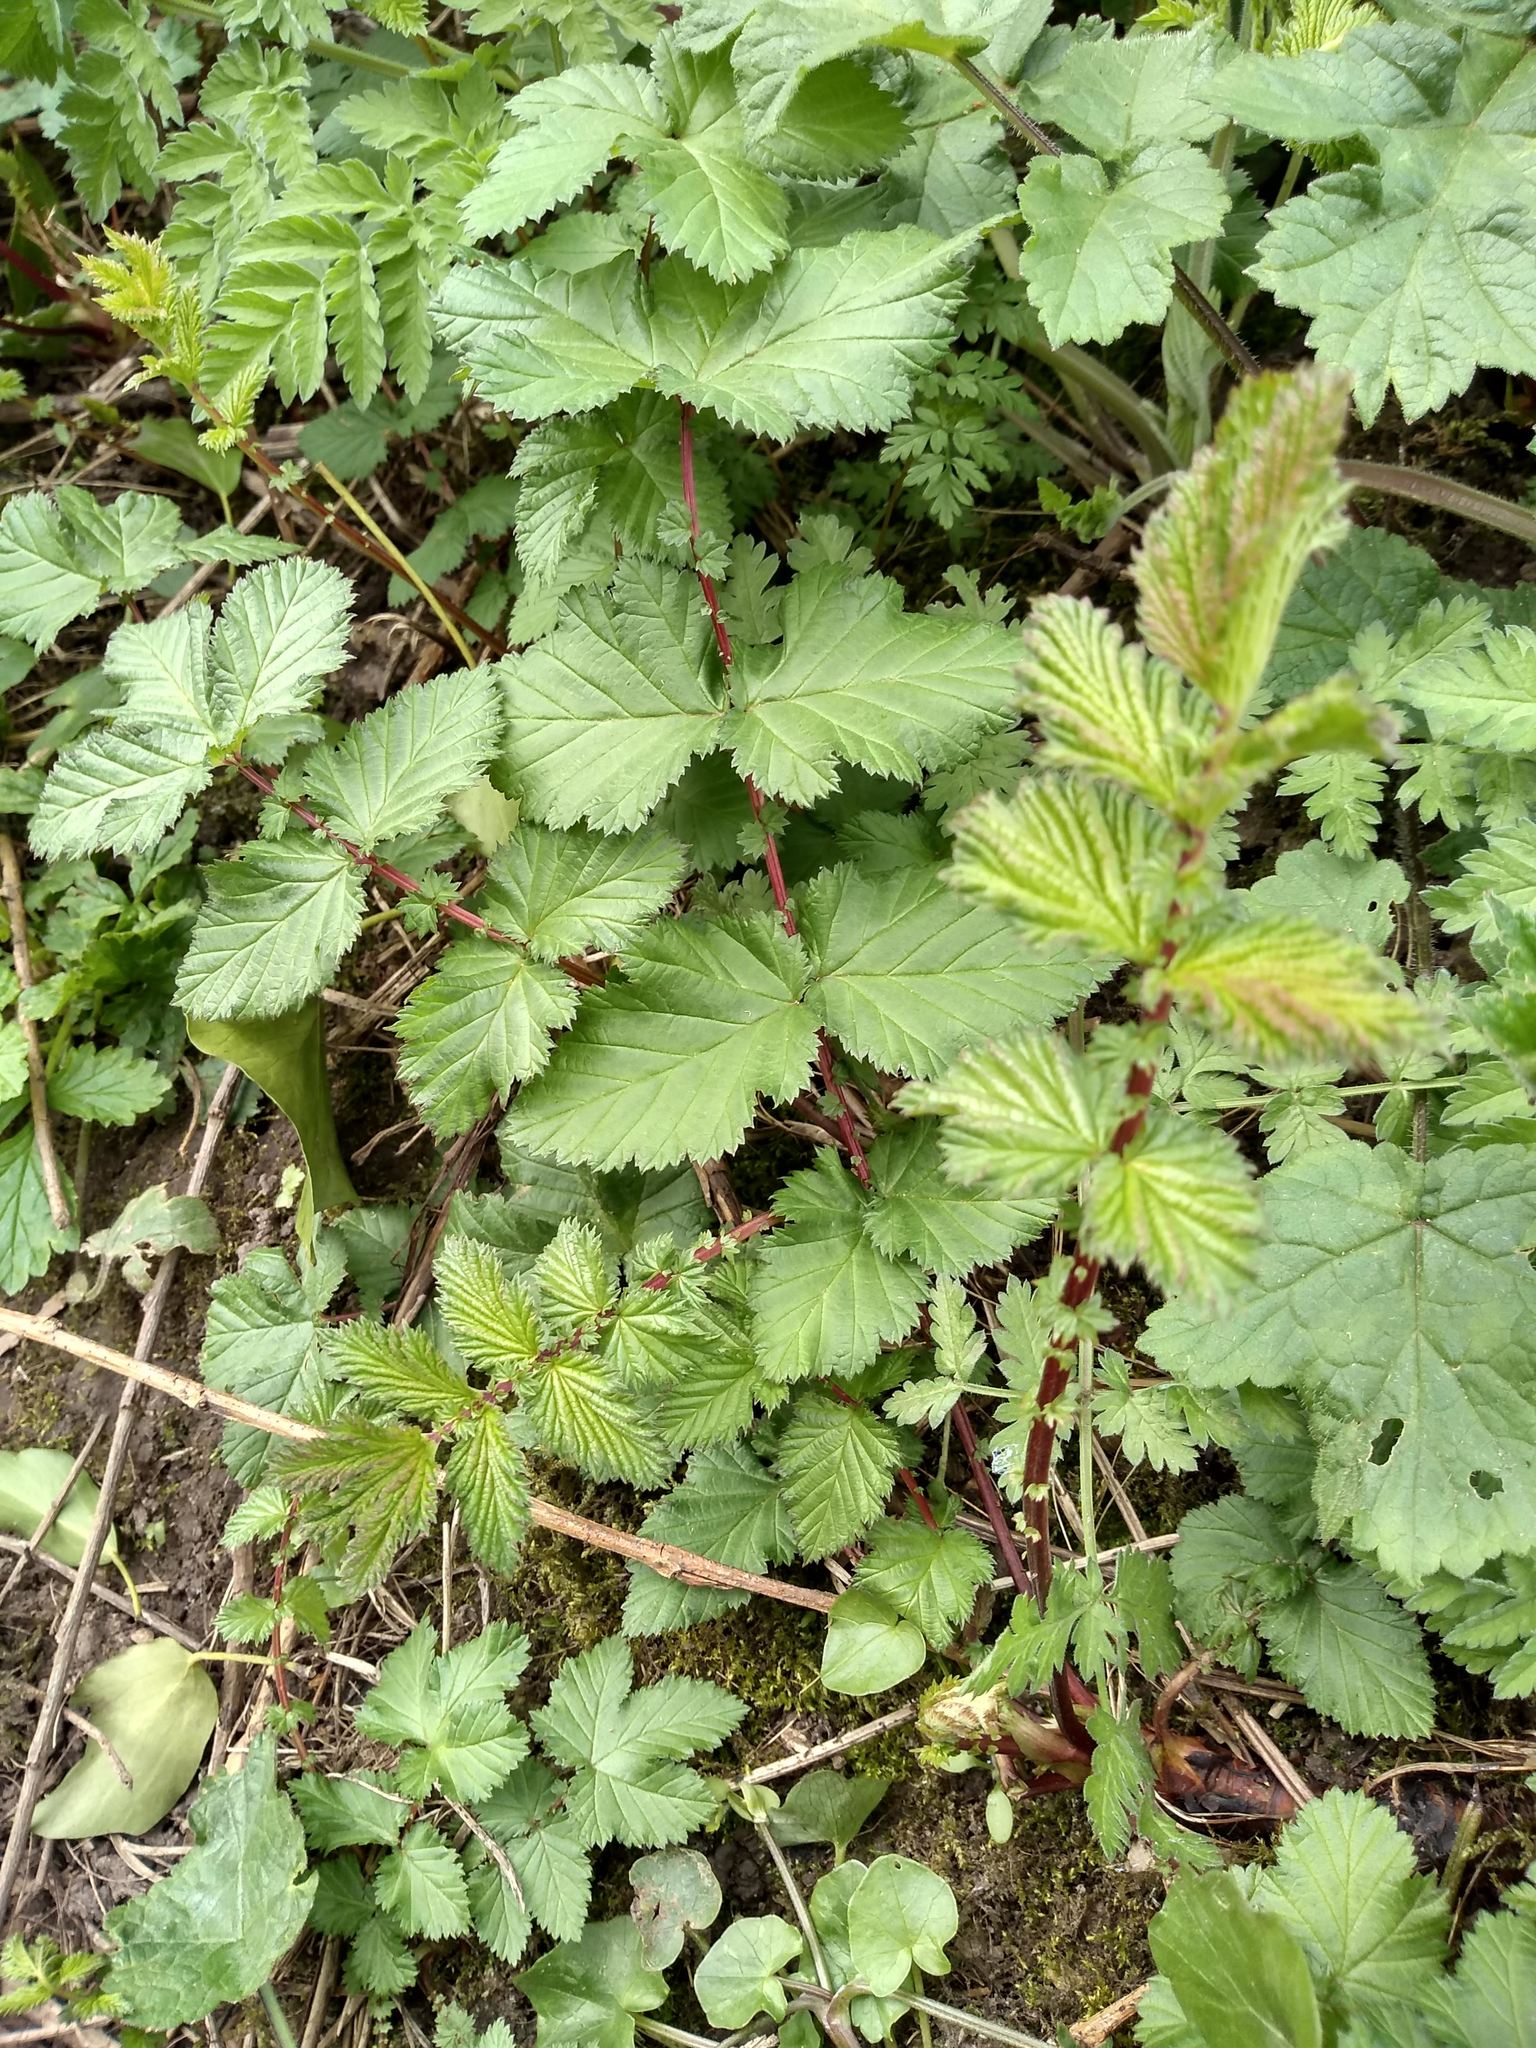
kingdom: Plantae
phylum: Tracheophyta
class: Magnoliopsida
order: Rosales
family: Rosaceae
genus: Filipendula
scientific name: Filipendula ulmaria
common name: Meadowsweet
